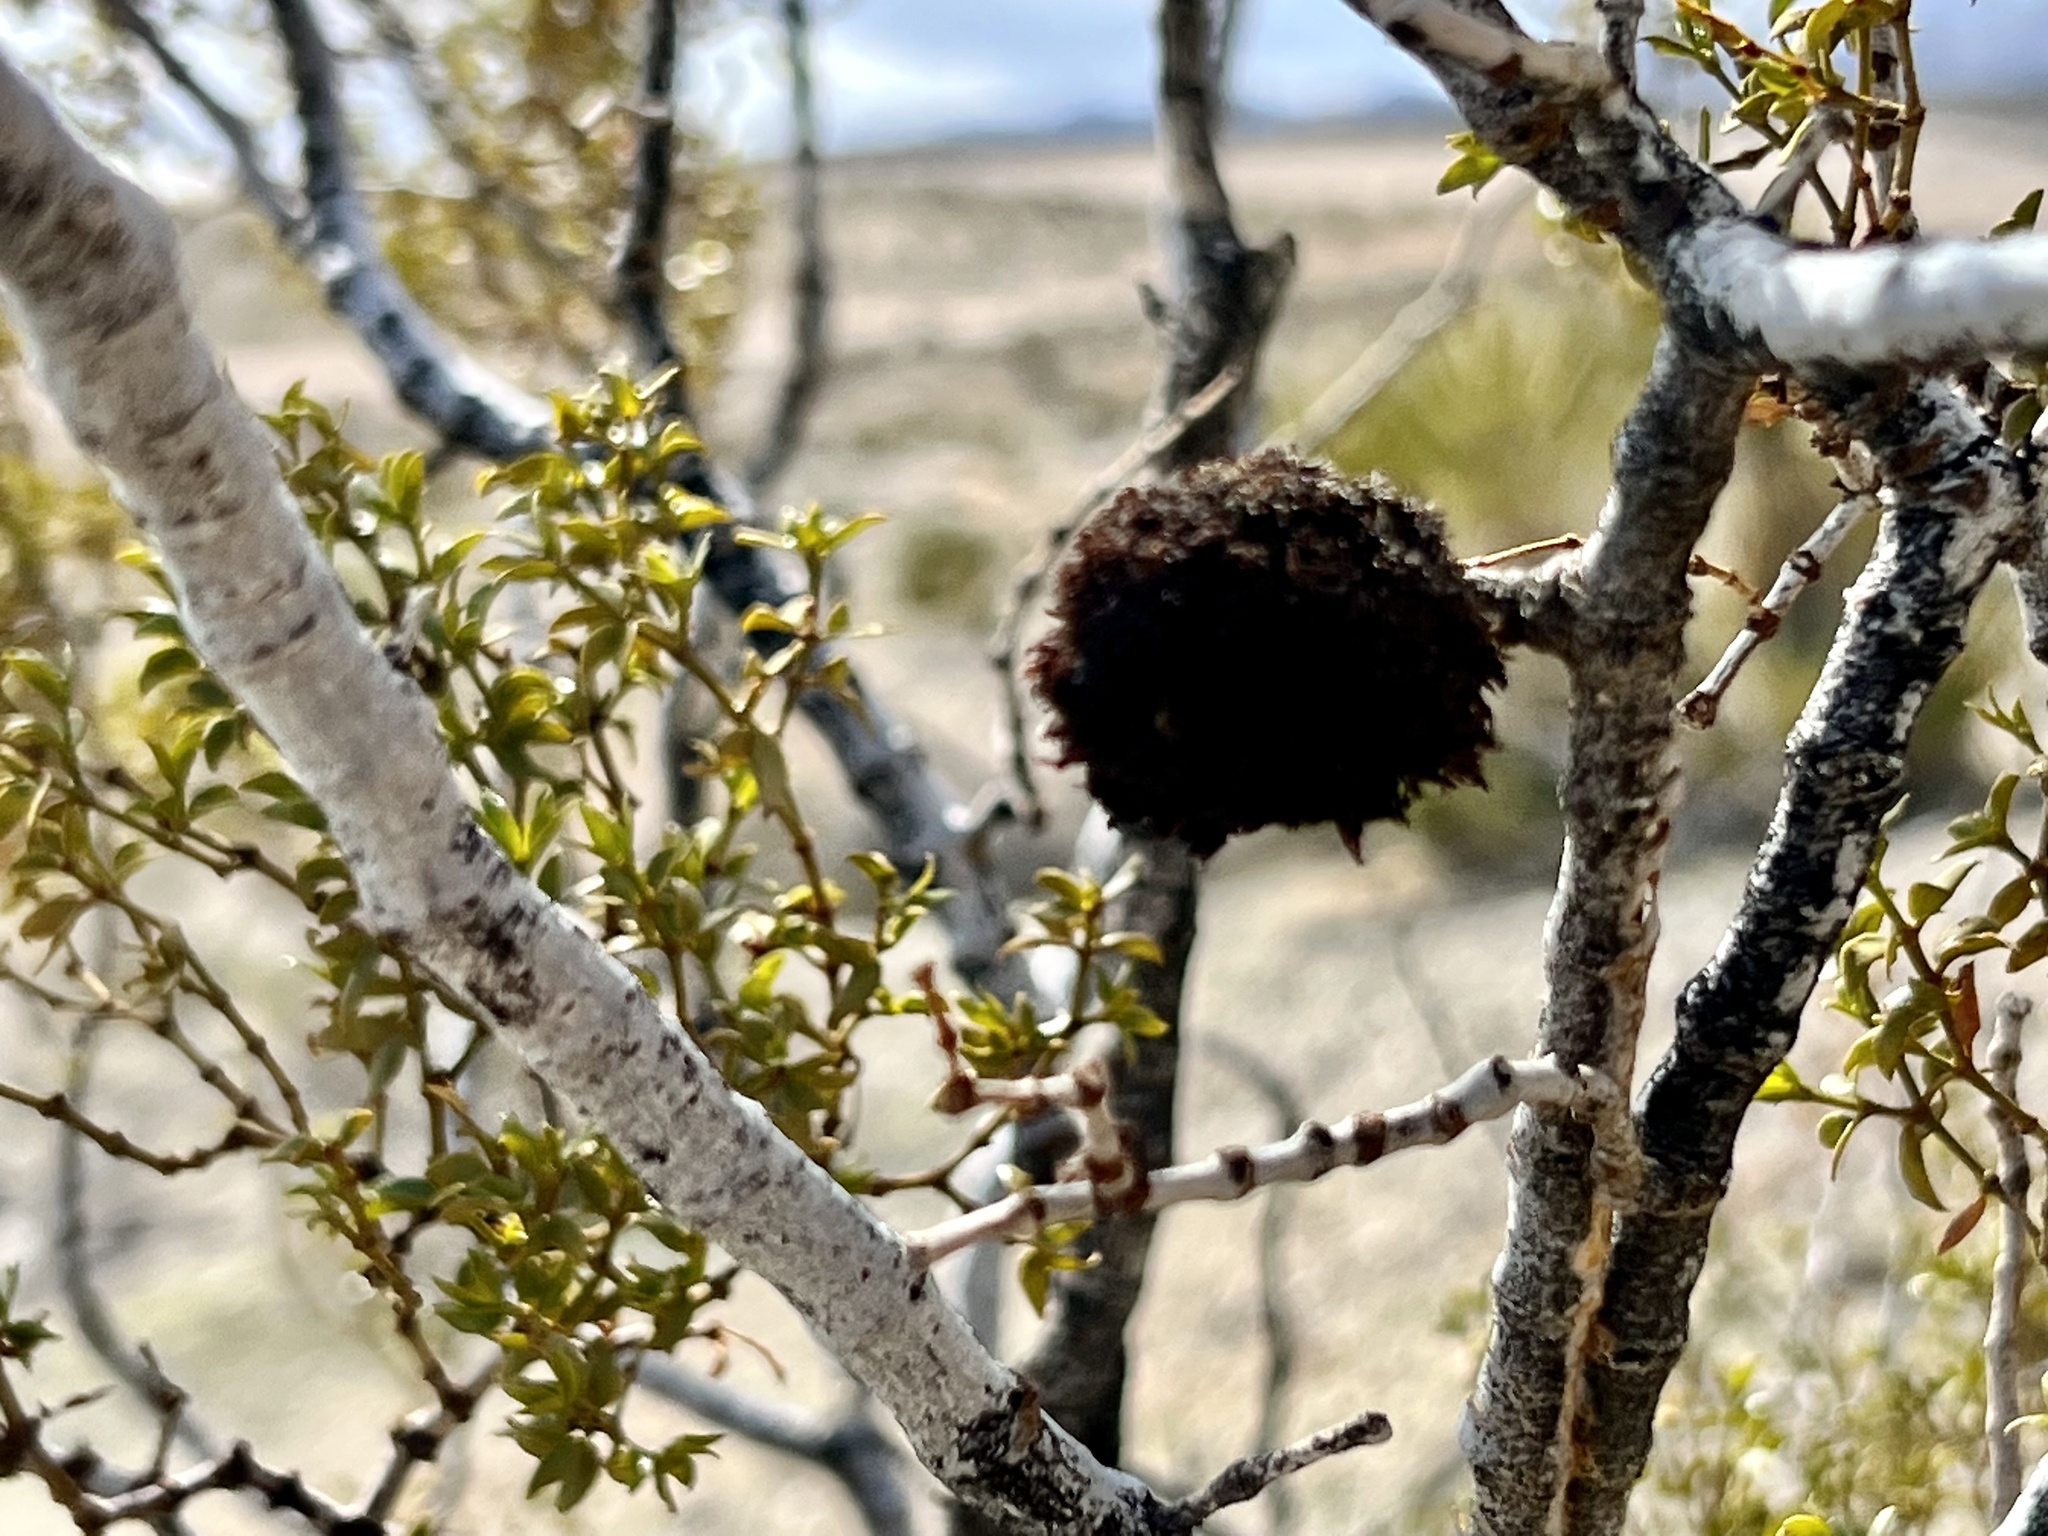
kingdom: Animalia
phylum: Arthropoda
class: Insecta
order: Diptera
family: Cecidomyiidae
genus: Asphondylia
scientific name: Asphondylia auripila
